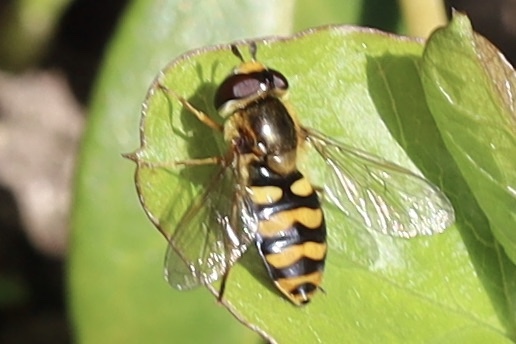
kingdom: Animalia
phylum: Arthropoda
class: Insecta
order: Diptera
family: Syrphidae
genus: Eupeodes
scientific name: Eupeodes latifasciatus
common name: Variable aphideater
